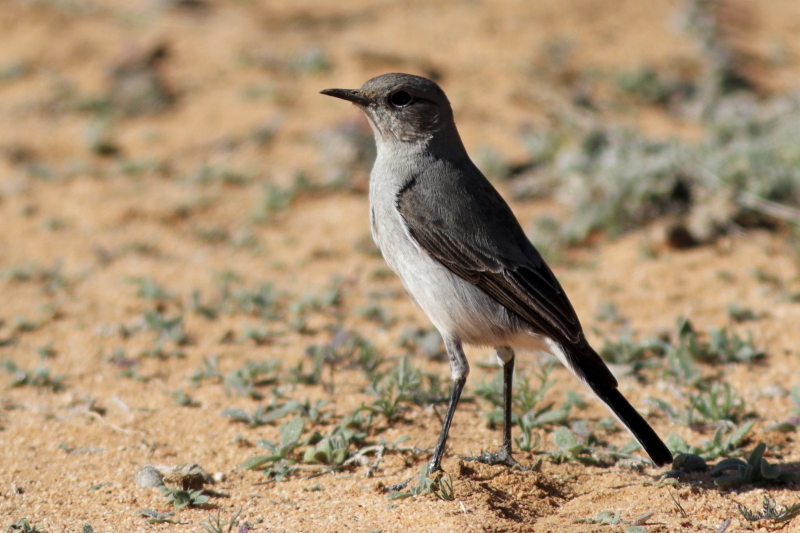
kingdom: Animalia
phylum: Chordata
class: Aves
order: Passeriformes
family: Muscicapidae
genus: Emarginata
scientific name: Emarginata schlegelii
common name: Karoo chat
